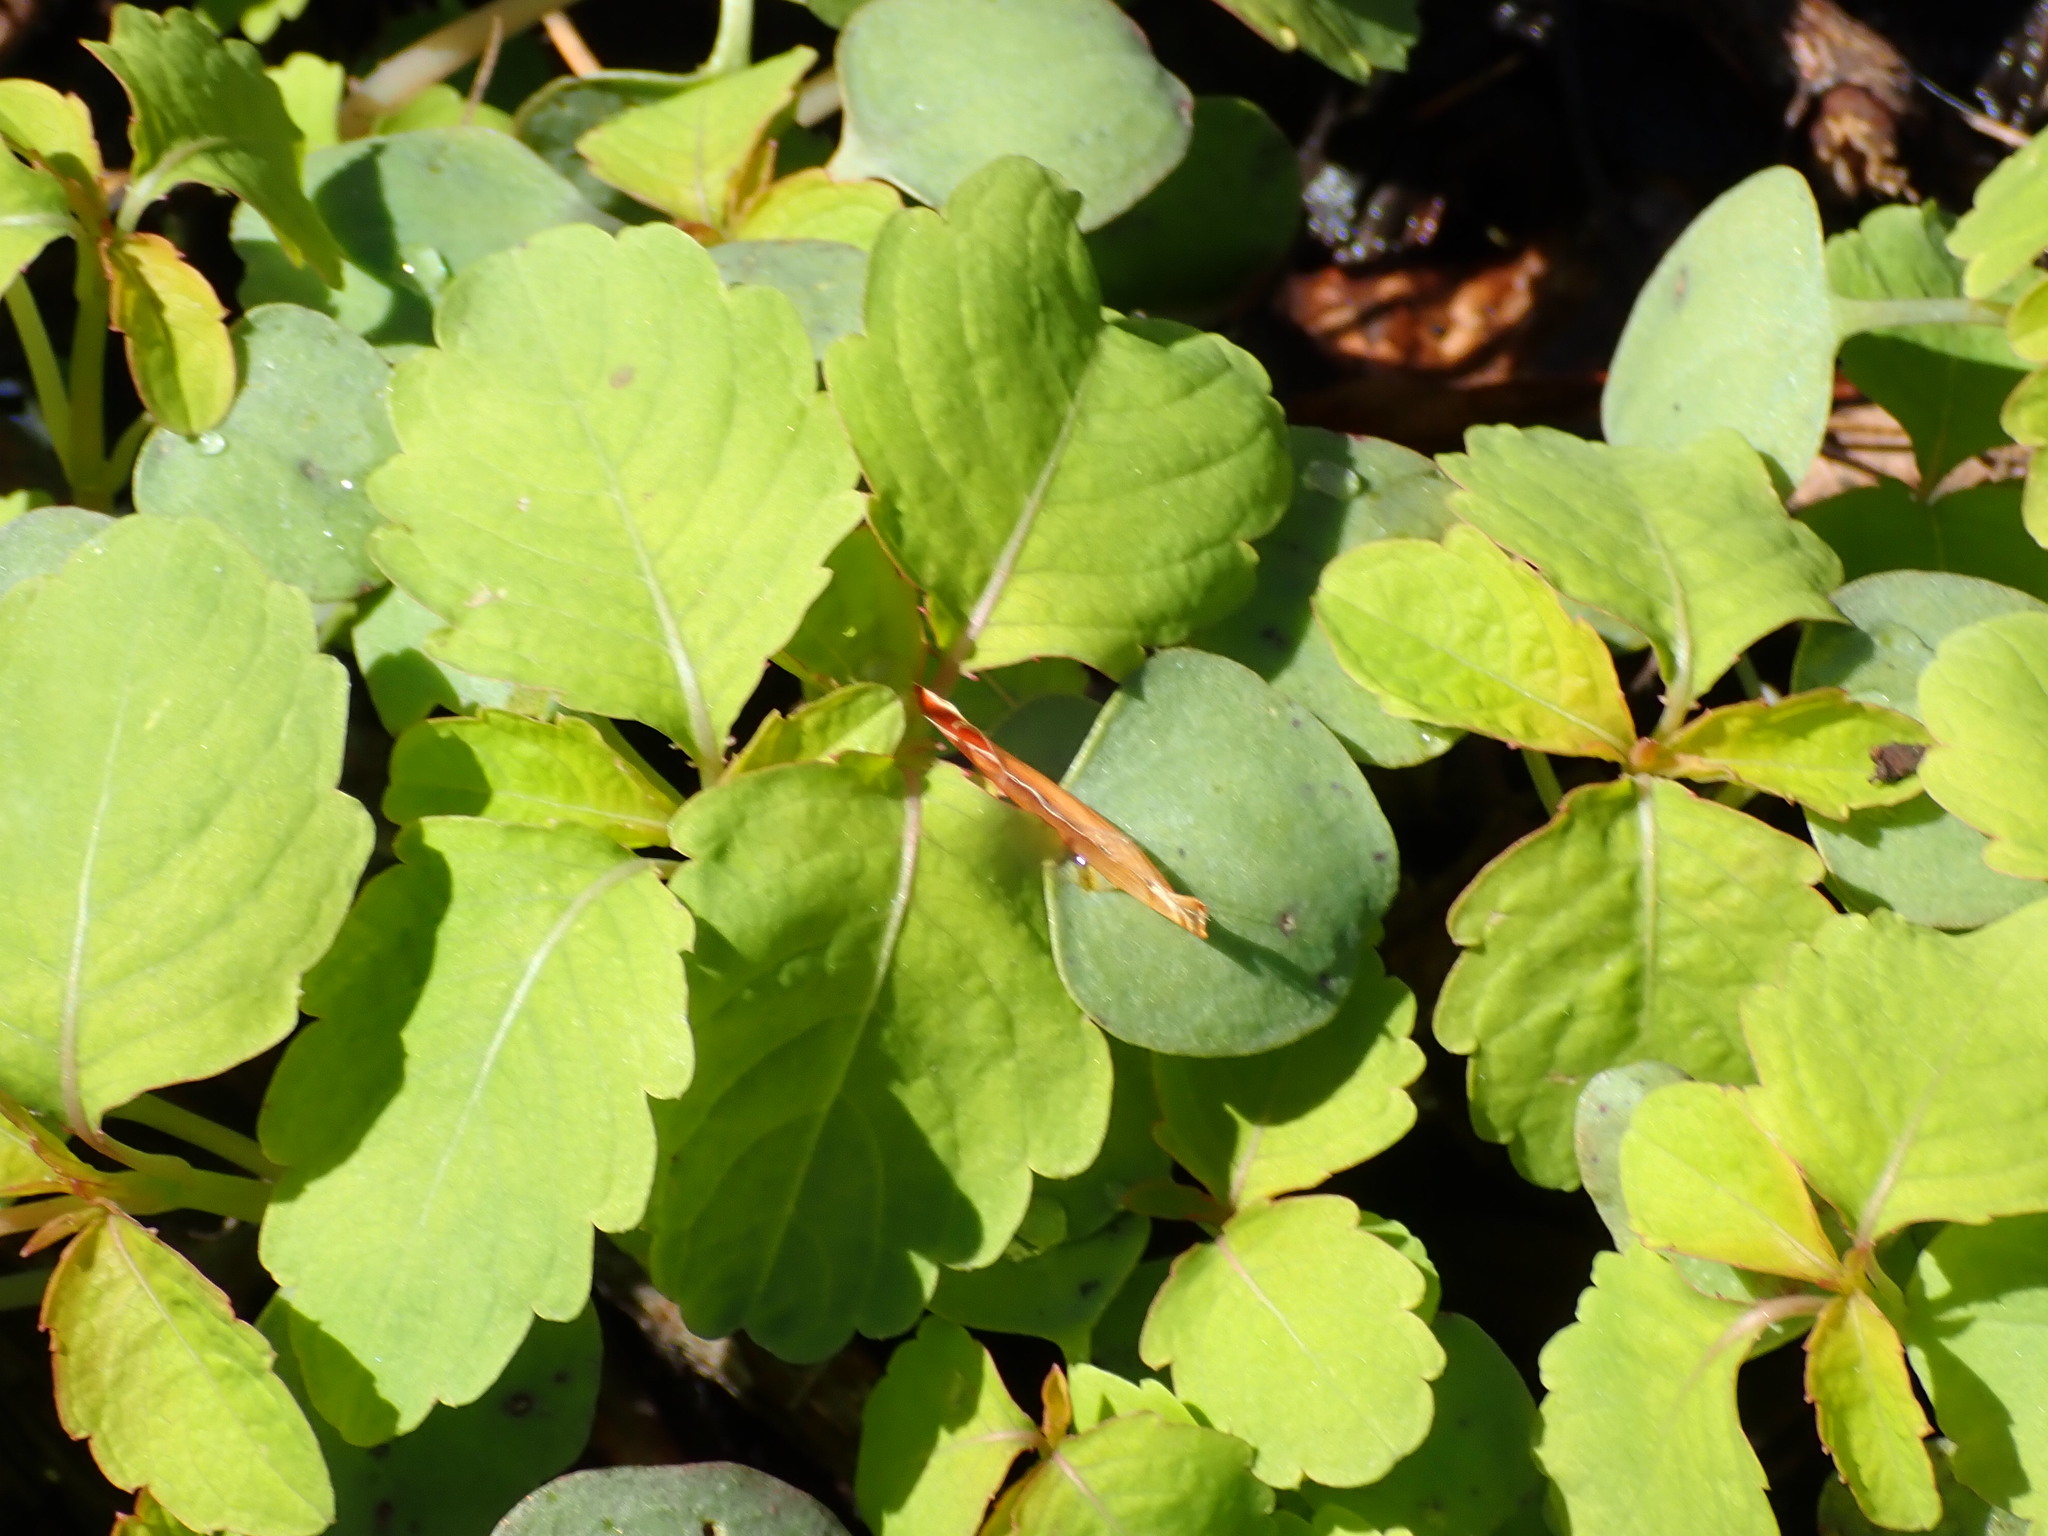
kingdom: Plantae
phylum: Tracheophyta
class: Magnoliopsida
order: Ericales
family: Balsaminaceae
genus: Impatiens
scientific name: Impatiens
